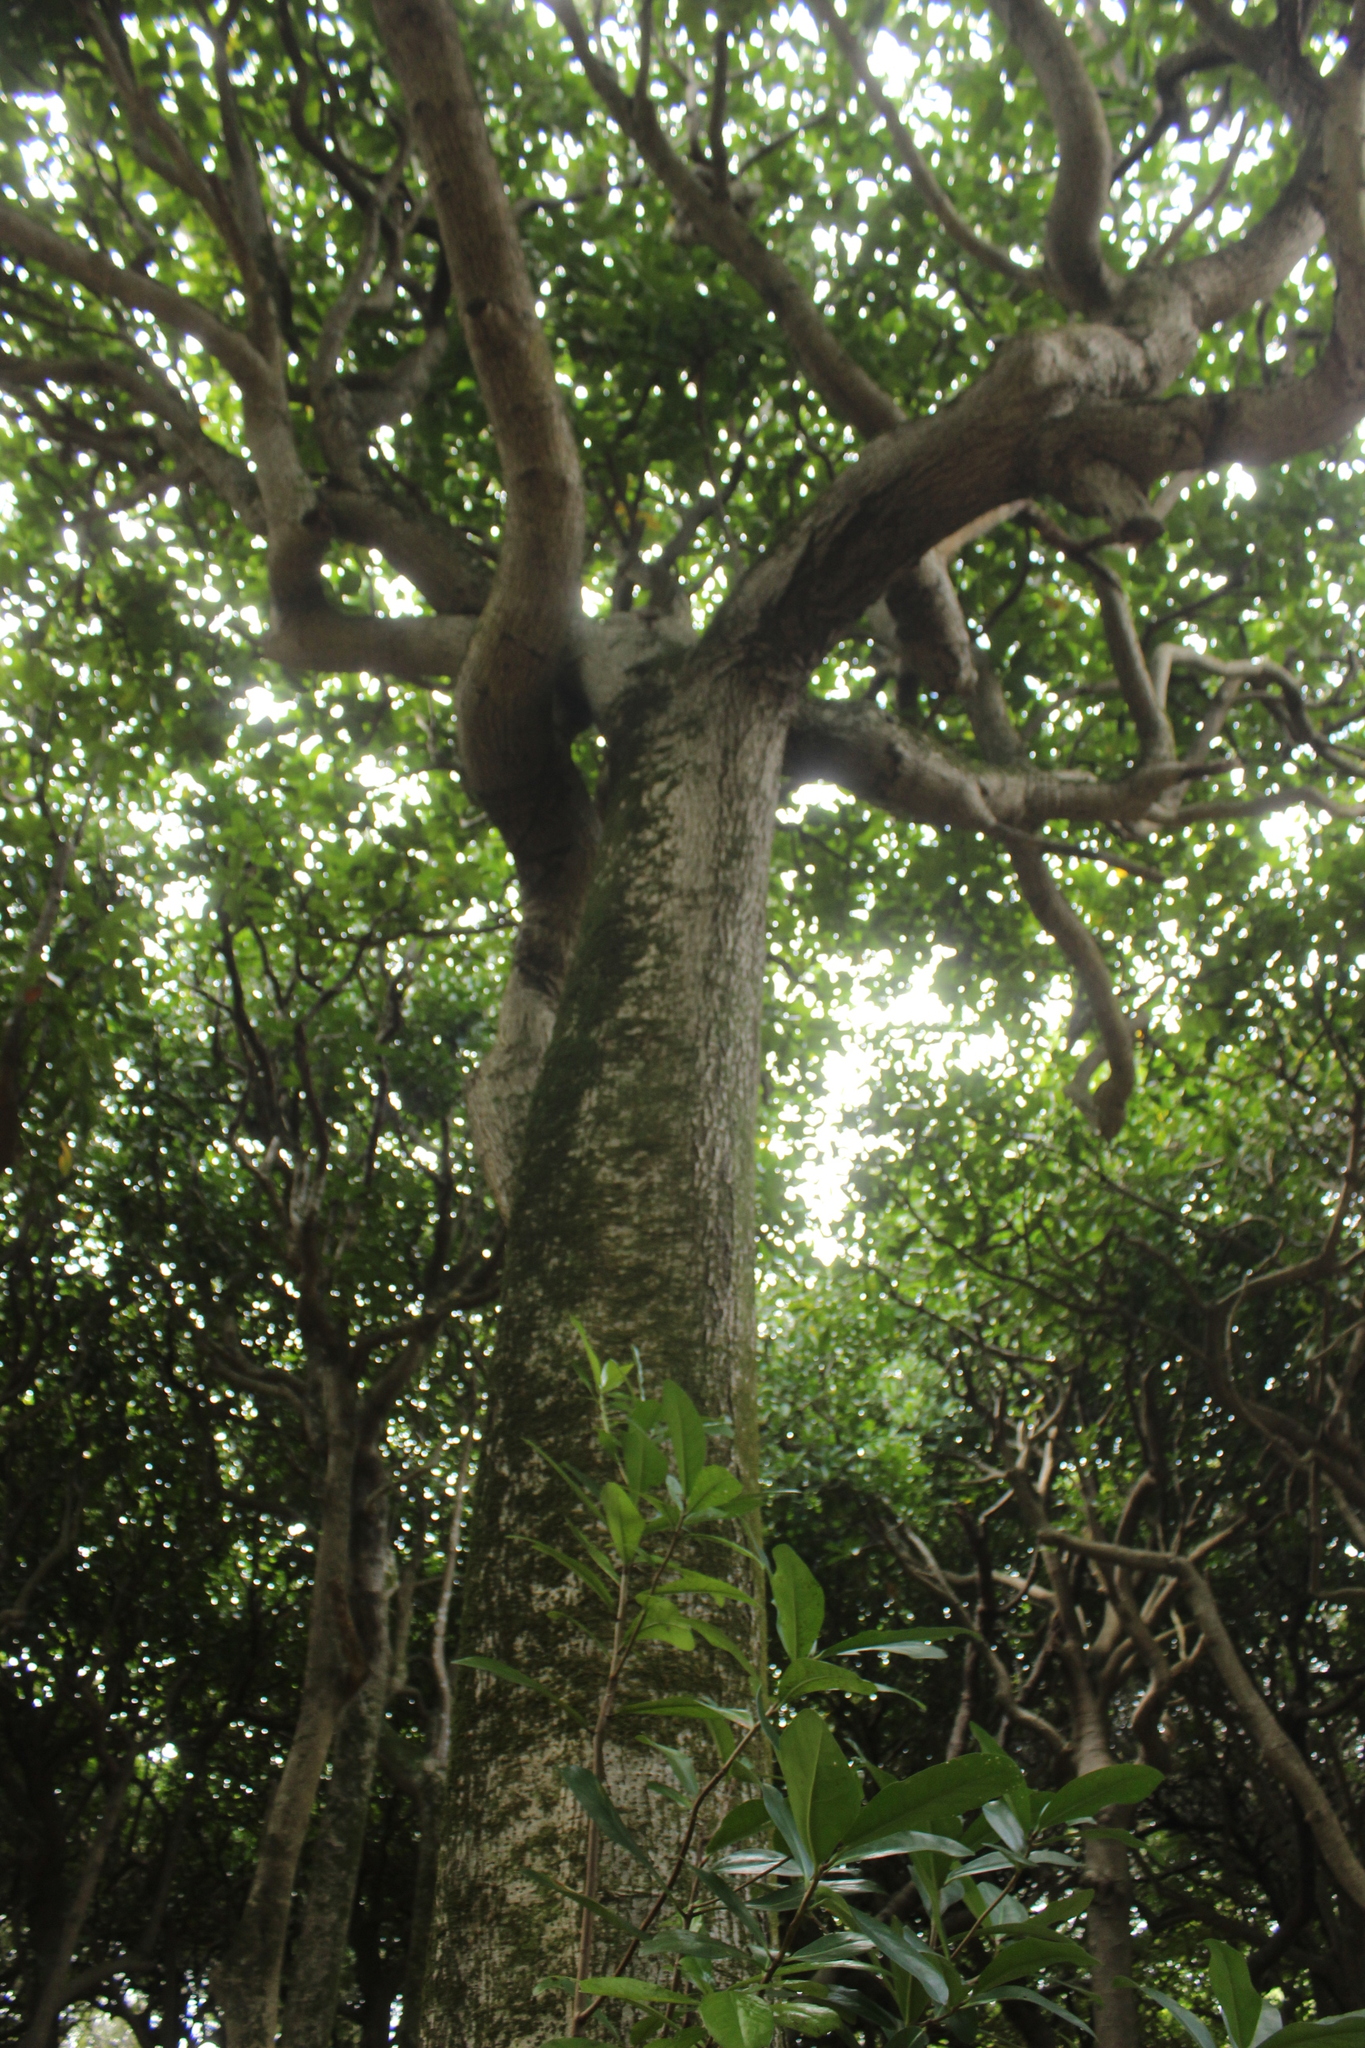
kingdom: Plantae
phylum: Tracheophyta
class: Magnoliopsida
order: Cucurbitales
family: Corynocarpaceae
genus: Corynocarpus
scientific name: Corynocarpus laevigatus
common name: New zealand laurel
